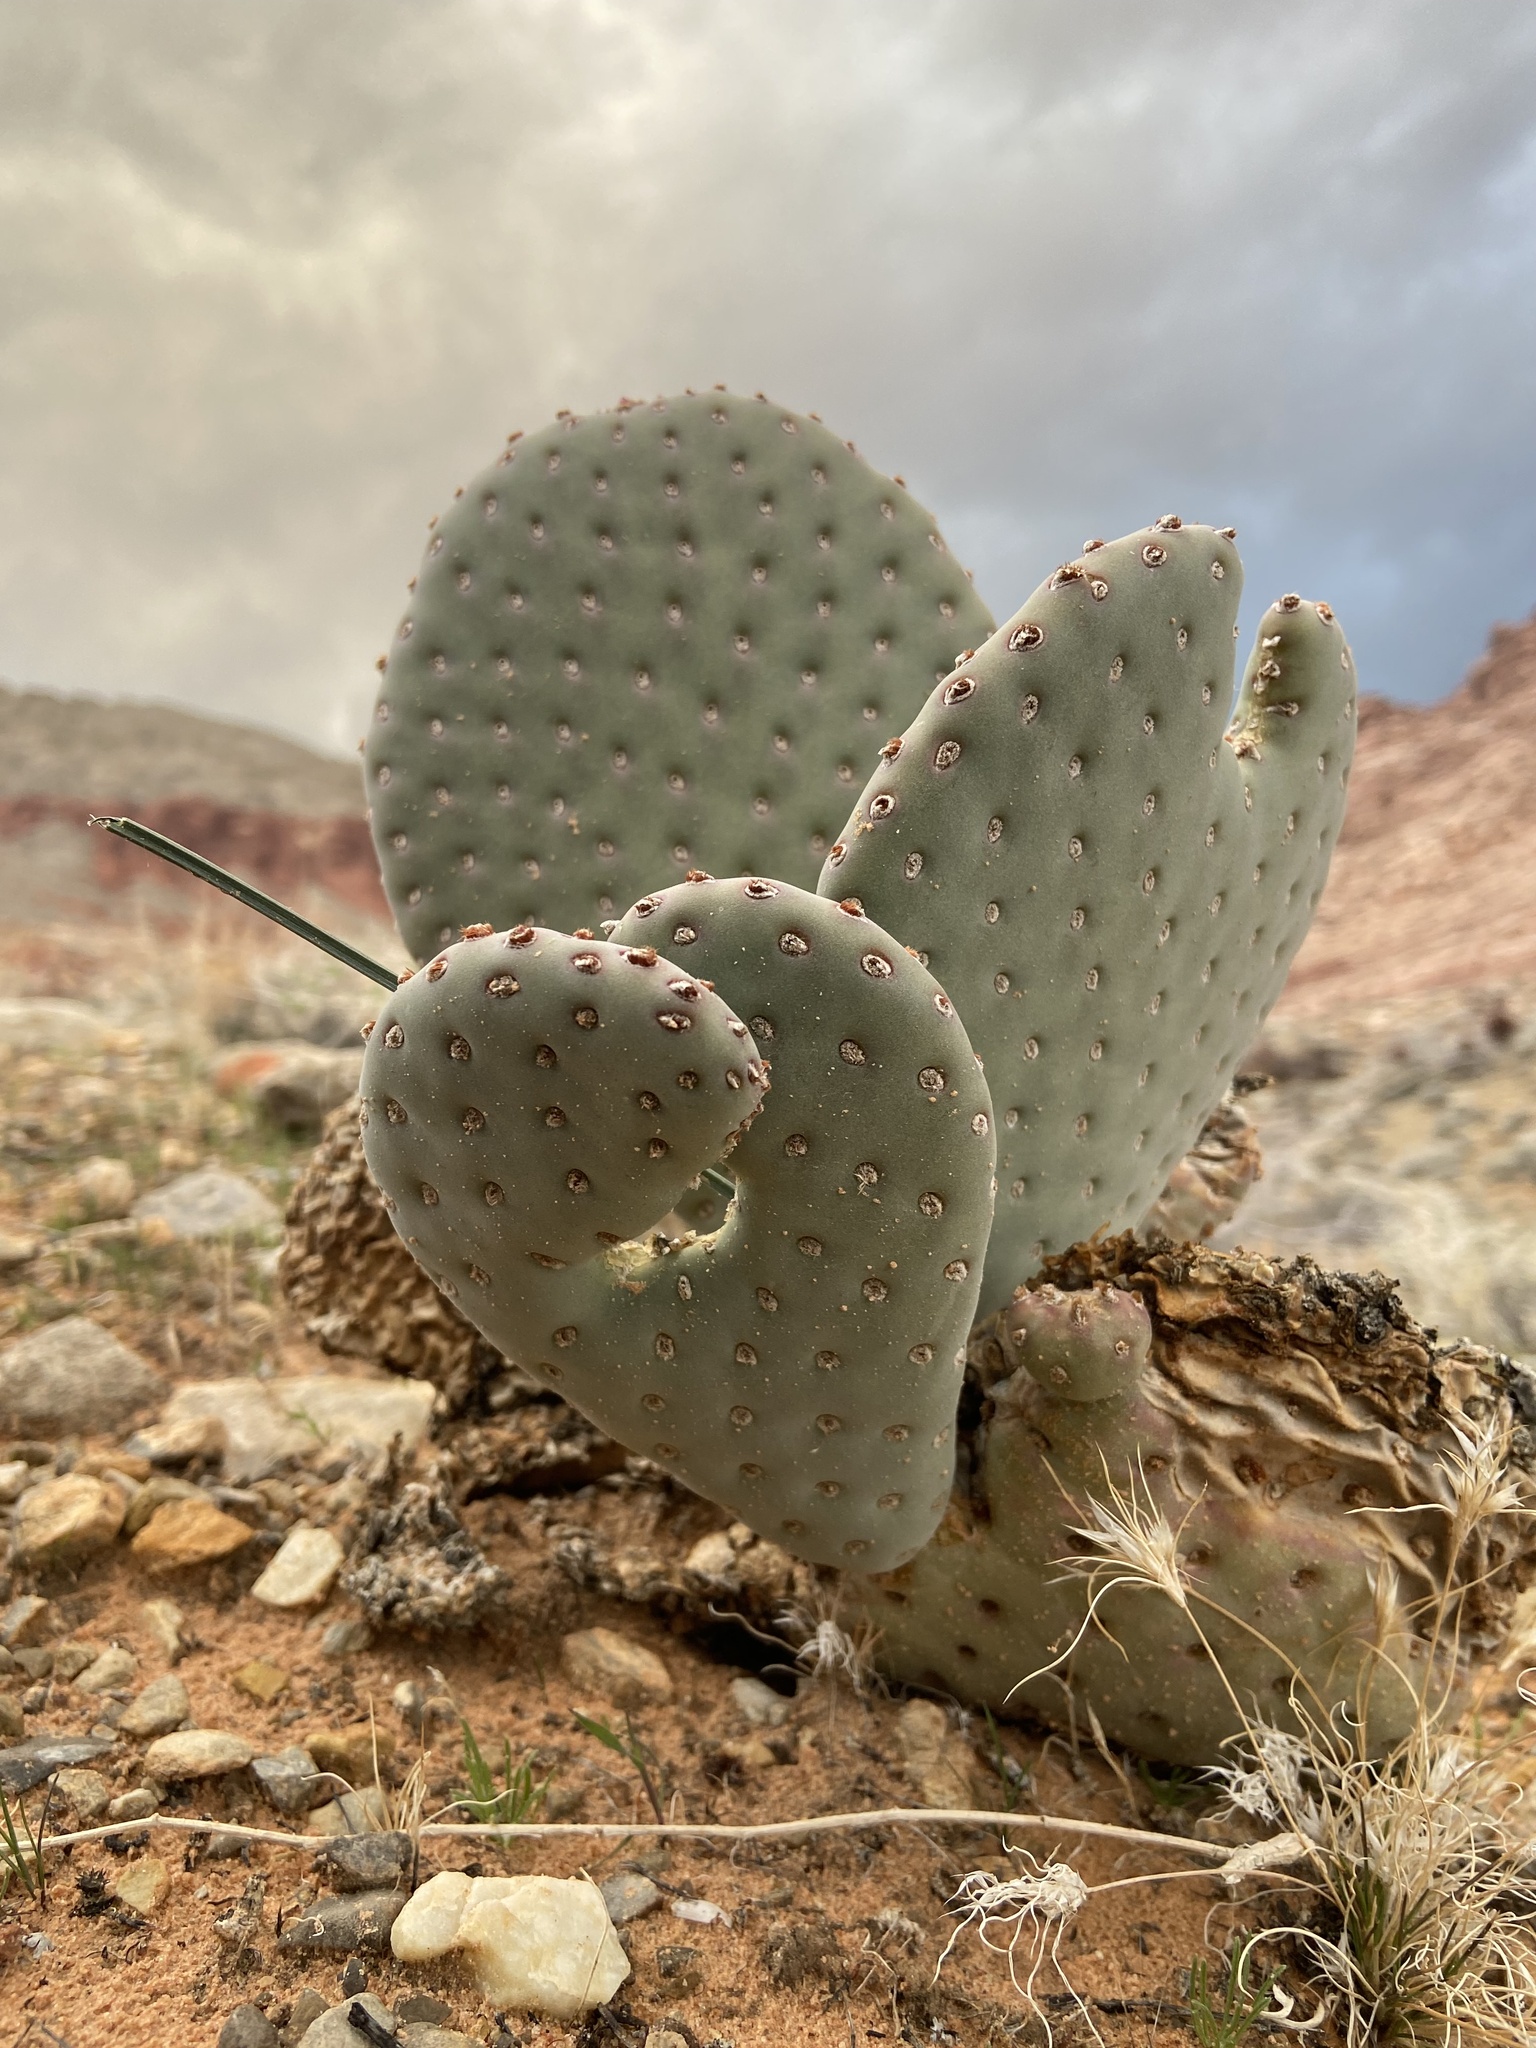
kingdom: Plantae
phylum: Tracheophyta
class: Magnoliopsida
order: Caryophyllales
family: Cactaceae
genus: Opuntia
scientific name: Opuntia basilaris
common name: Beavertail prickly-pear
